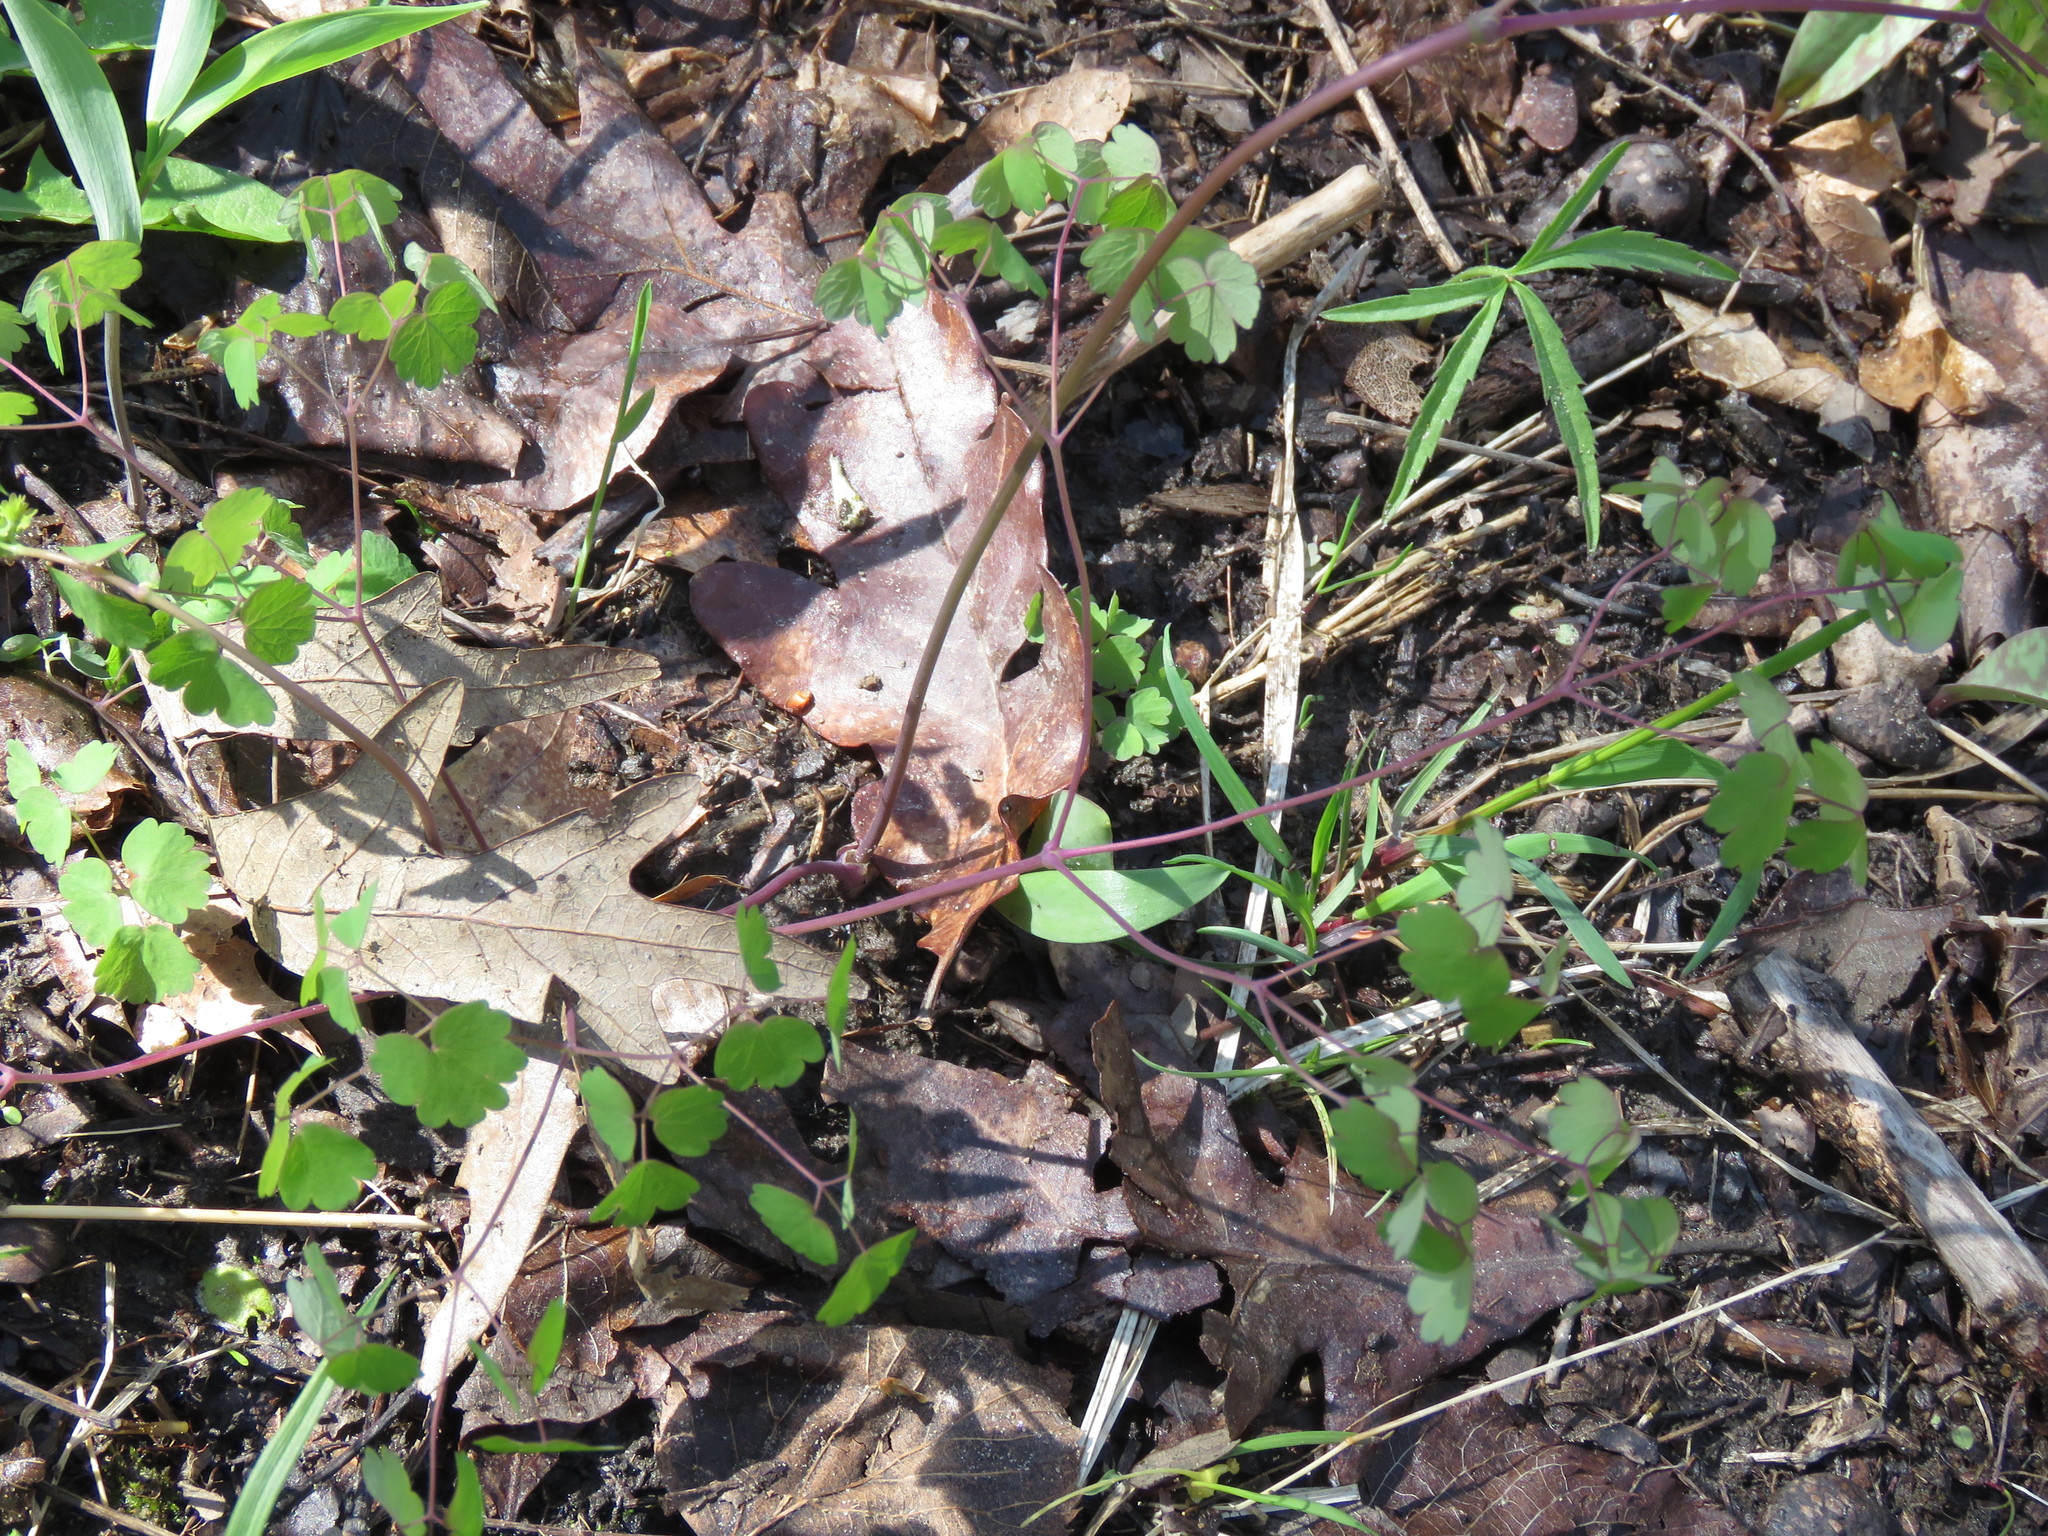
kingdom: Plantae
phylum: Tracheophyta
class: Magnoliopsida
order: Ranunculales
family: Ranunculaceae
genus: Thalictrum
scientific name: Thalictrum dioicum
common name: Early meadow-rue
